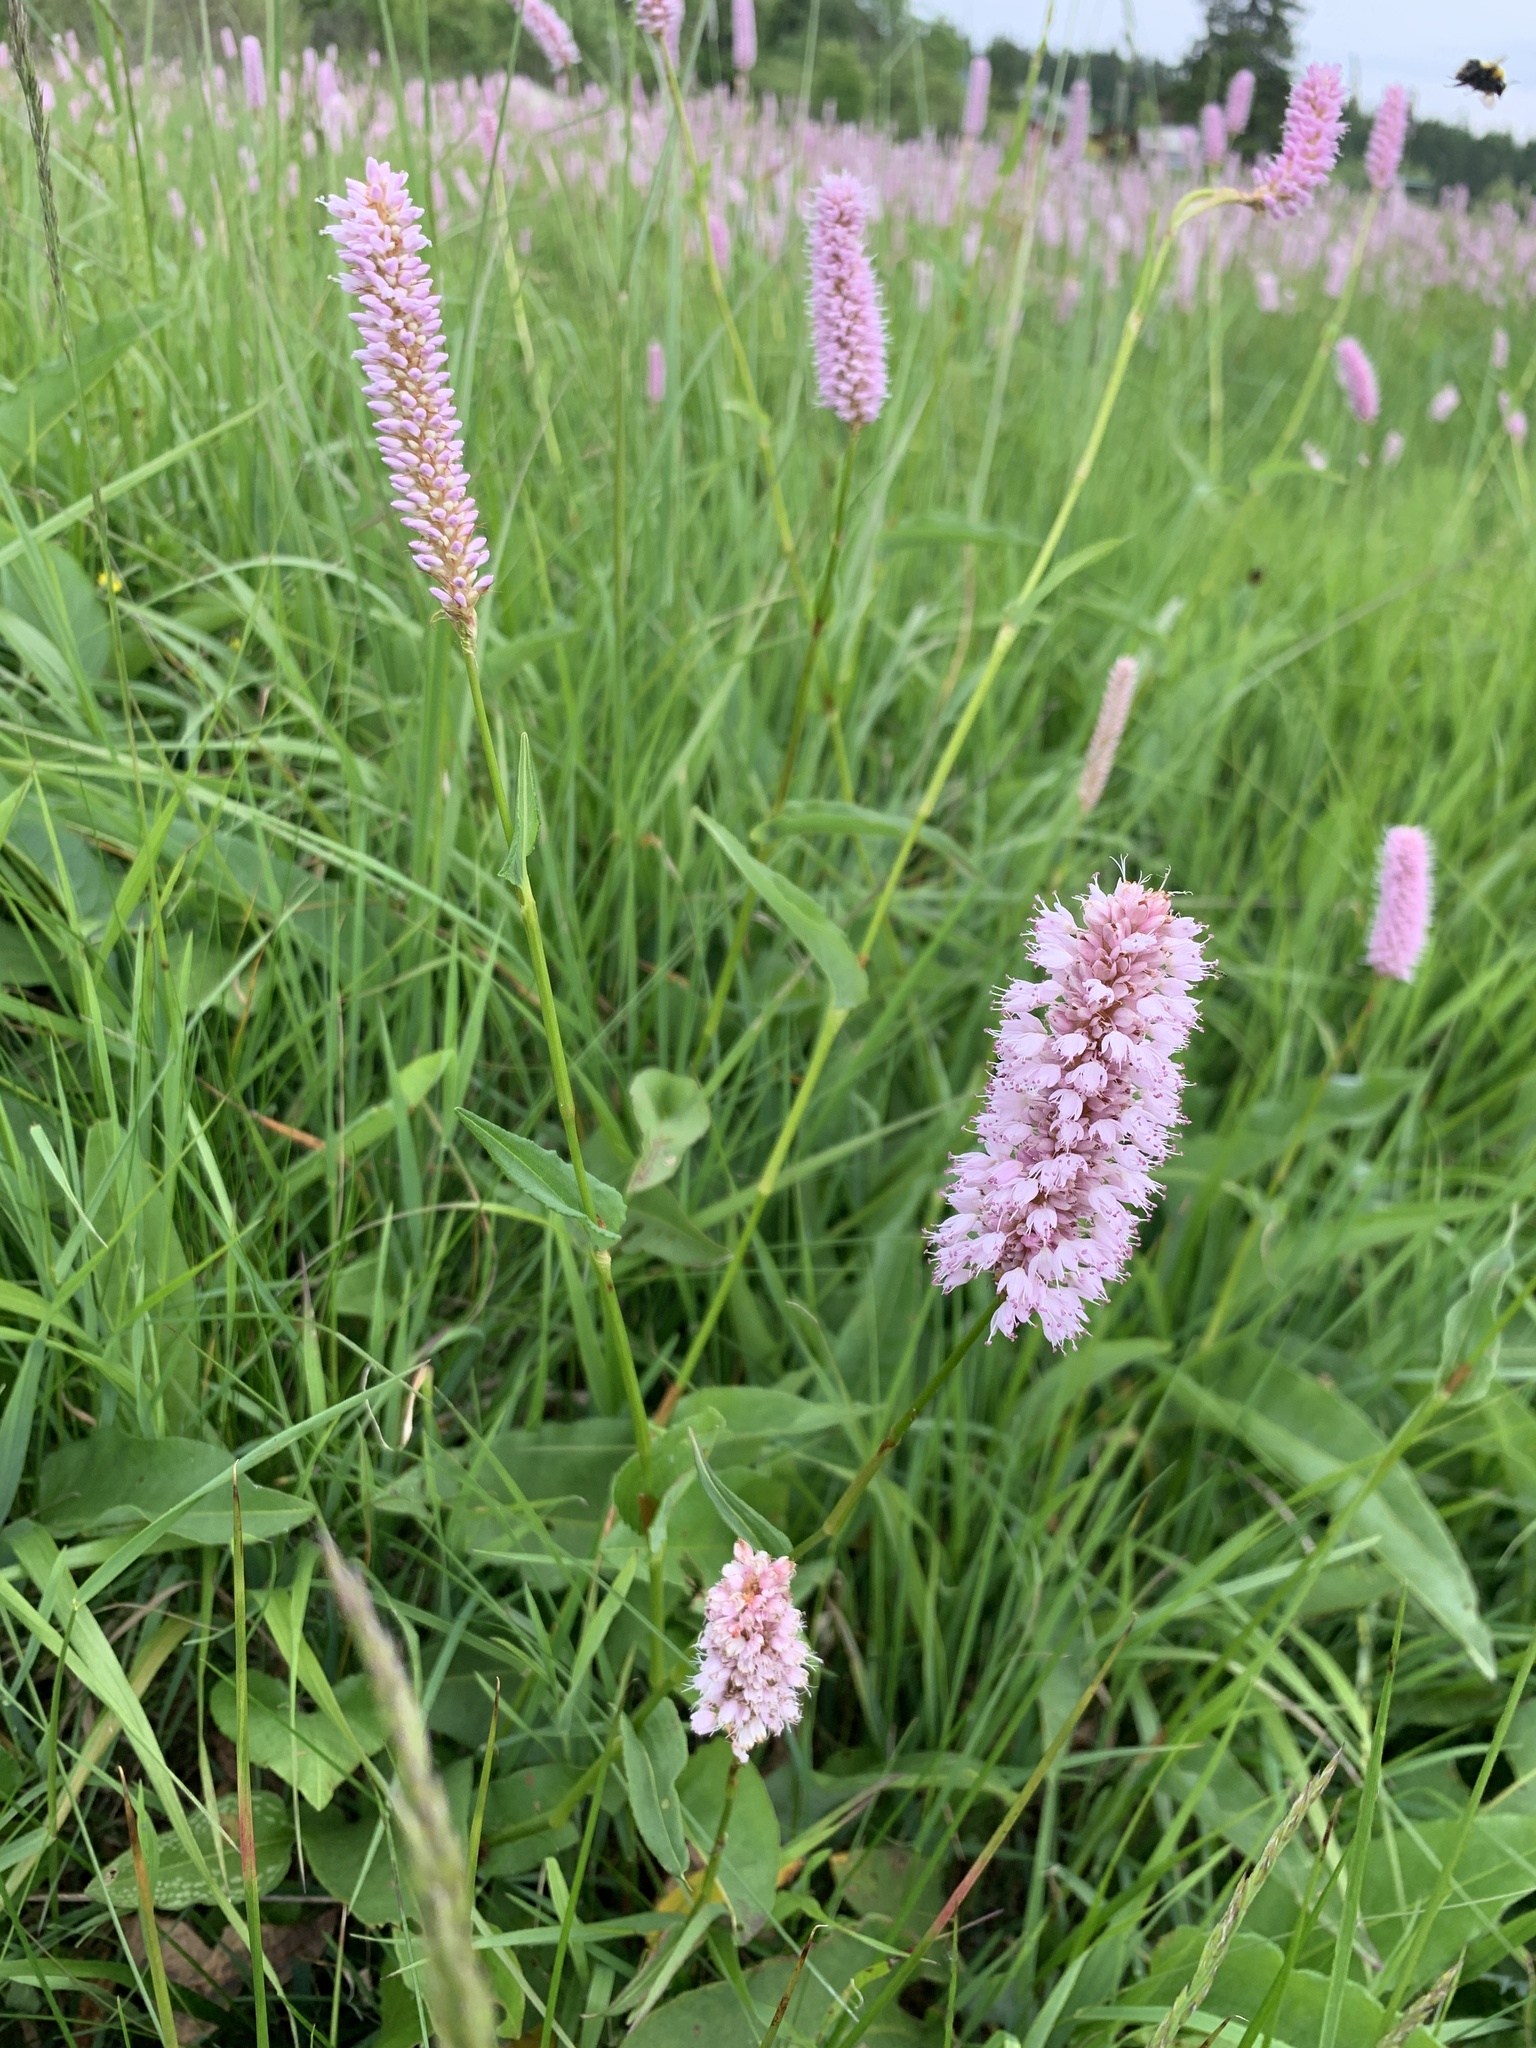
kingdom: Plantae
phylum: Tracheophyta
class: Magnoliopsida
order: Caryophyllales
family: Polygonaceae
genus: Bistorta
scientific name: Bistorta officinalis
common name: Common bistort
